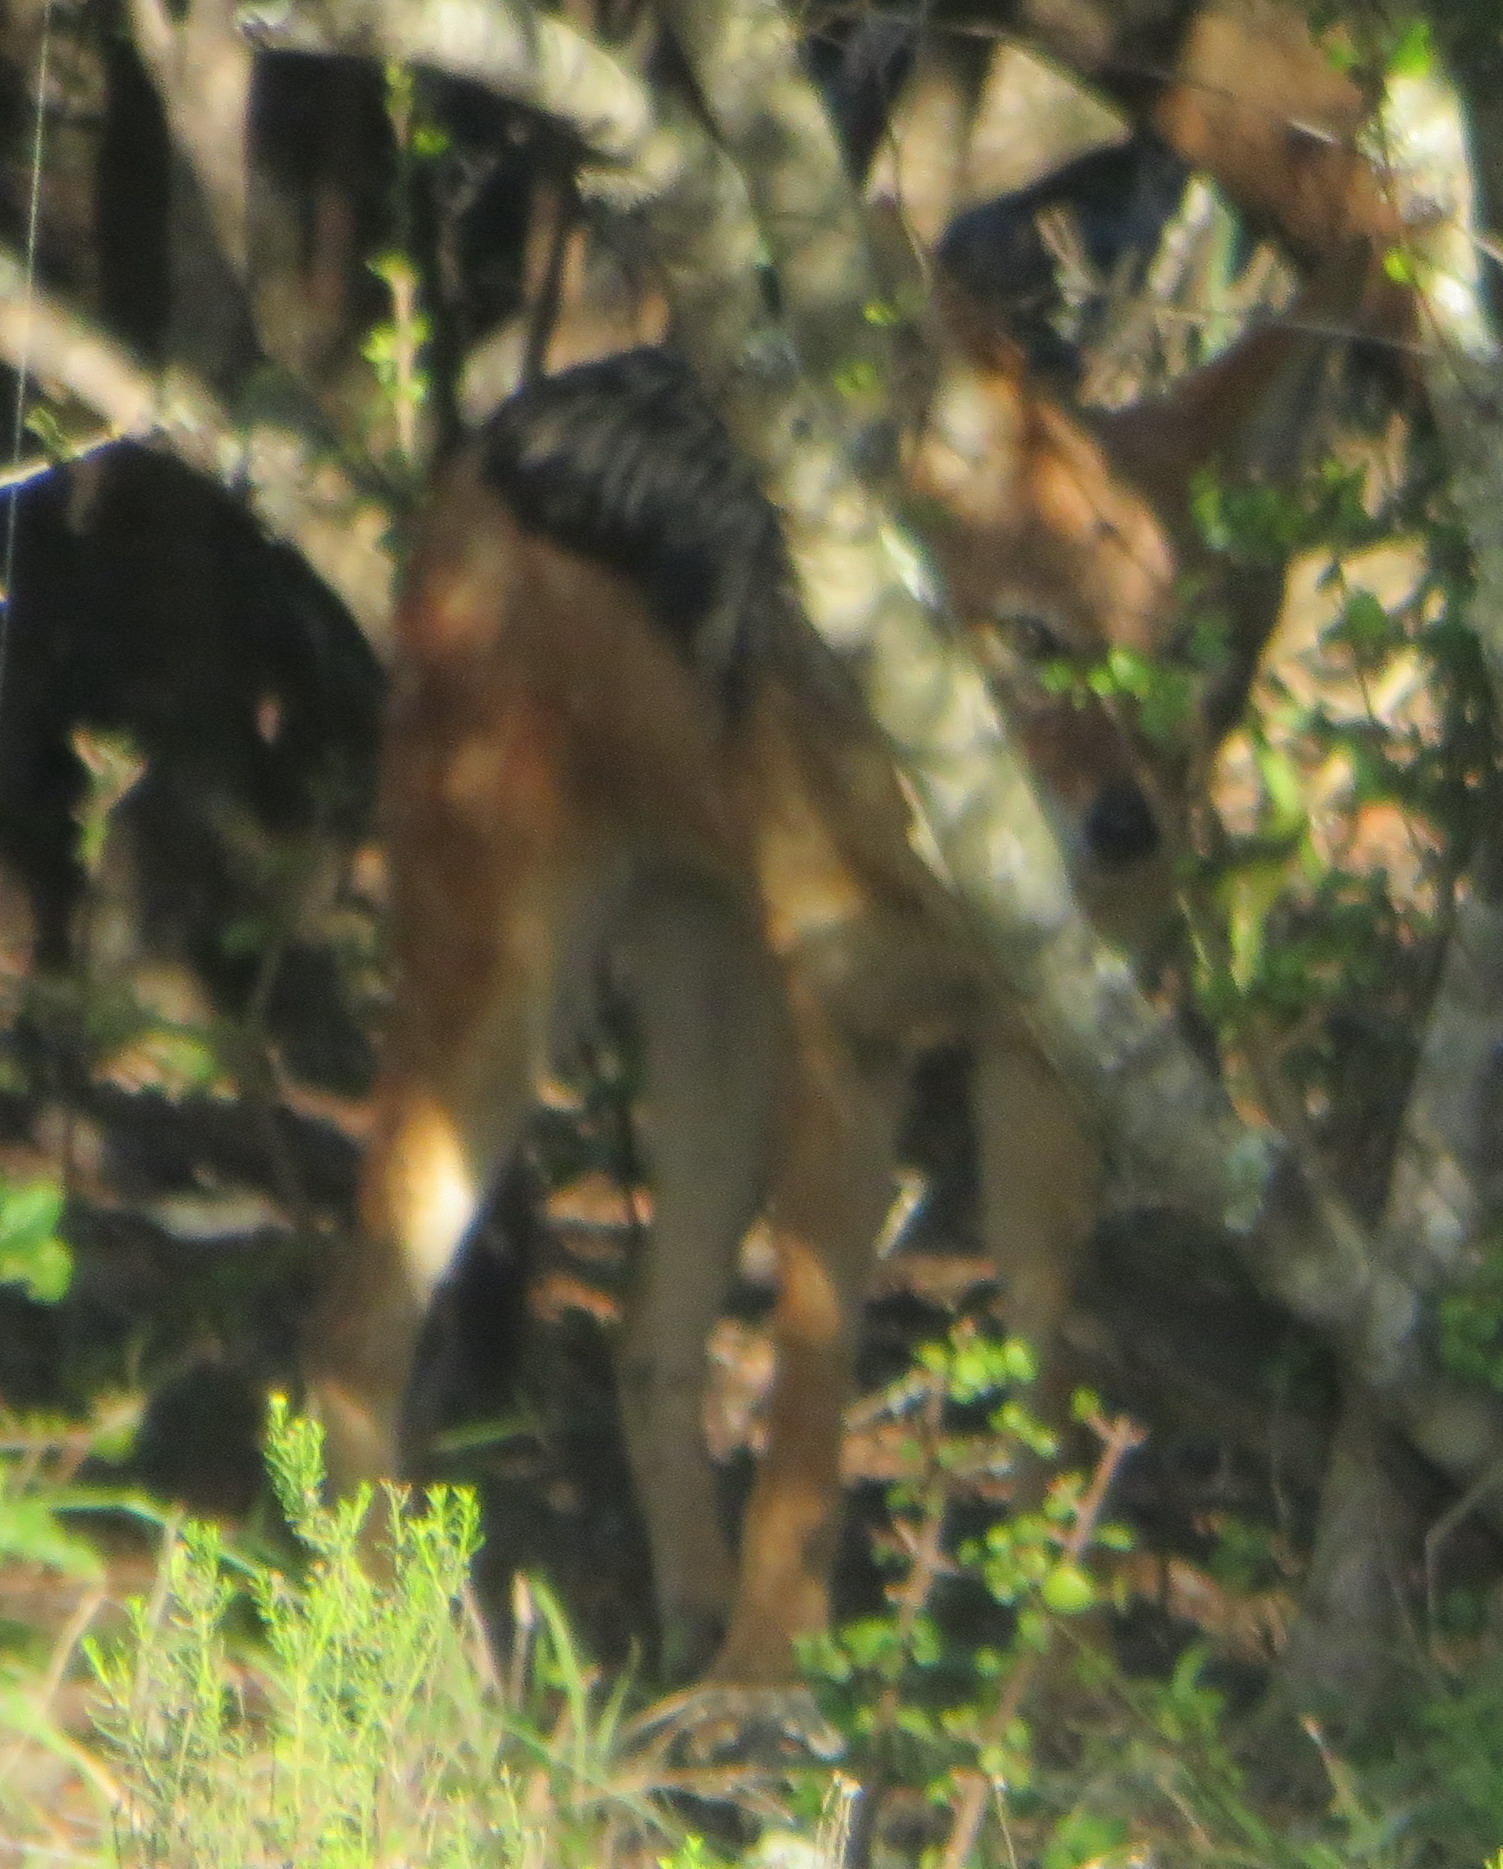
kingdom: Animalia
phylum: Chordata
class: Mammalia
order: Carnivora
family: Canidae
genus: Lupulella
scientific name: Lupulella
